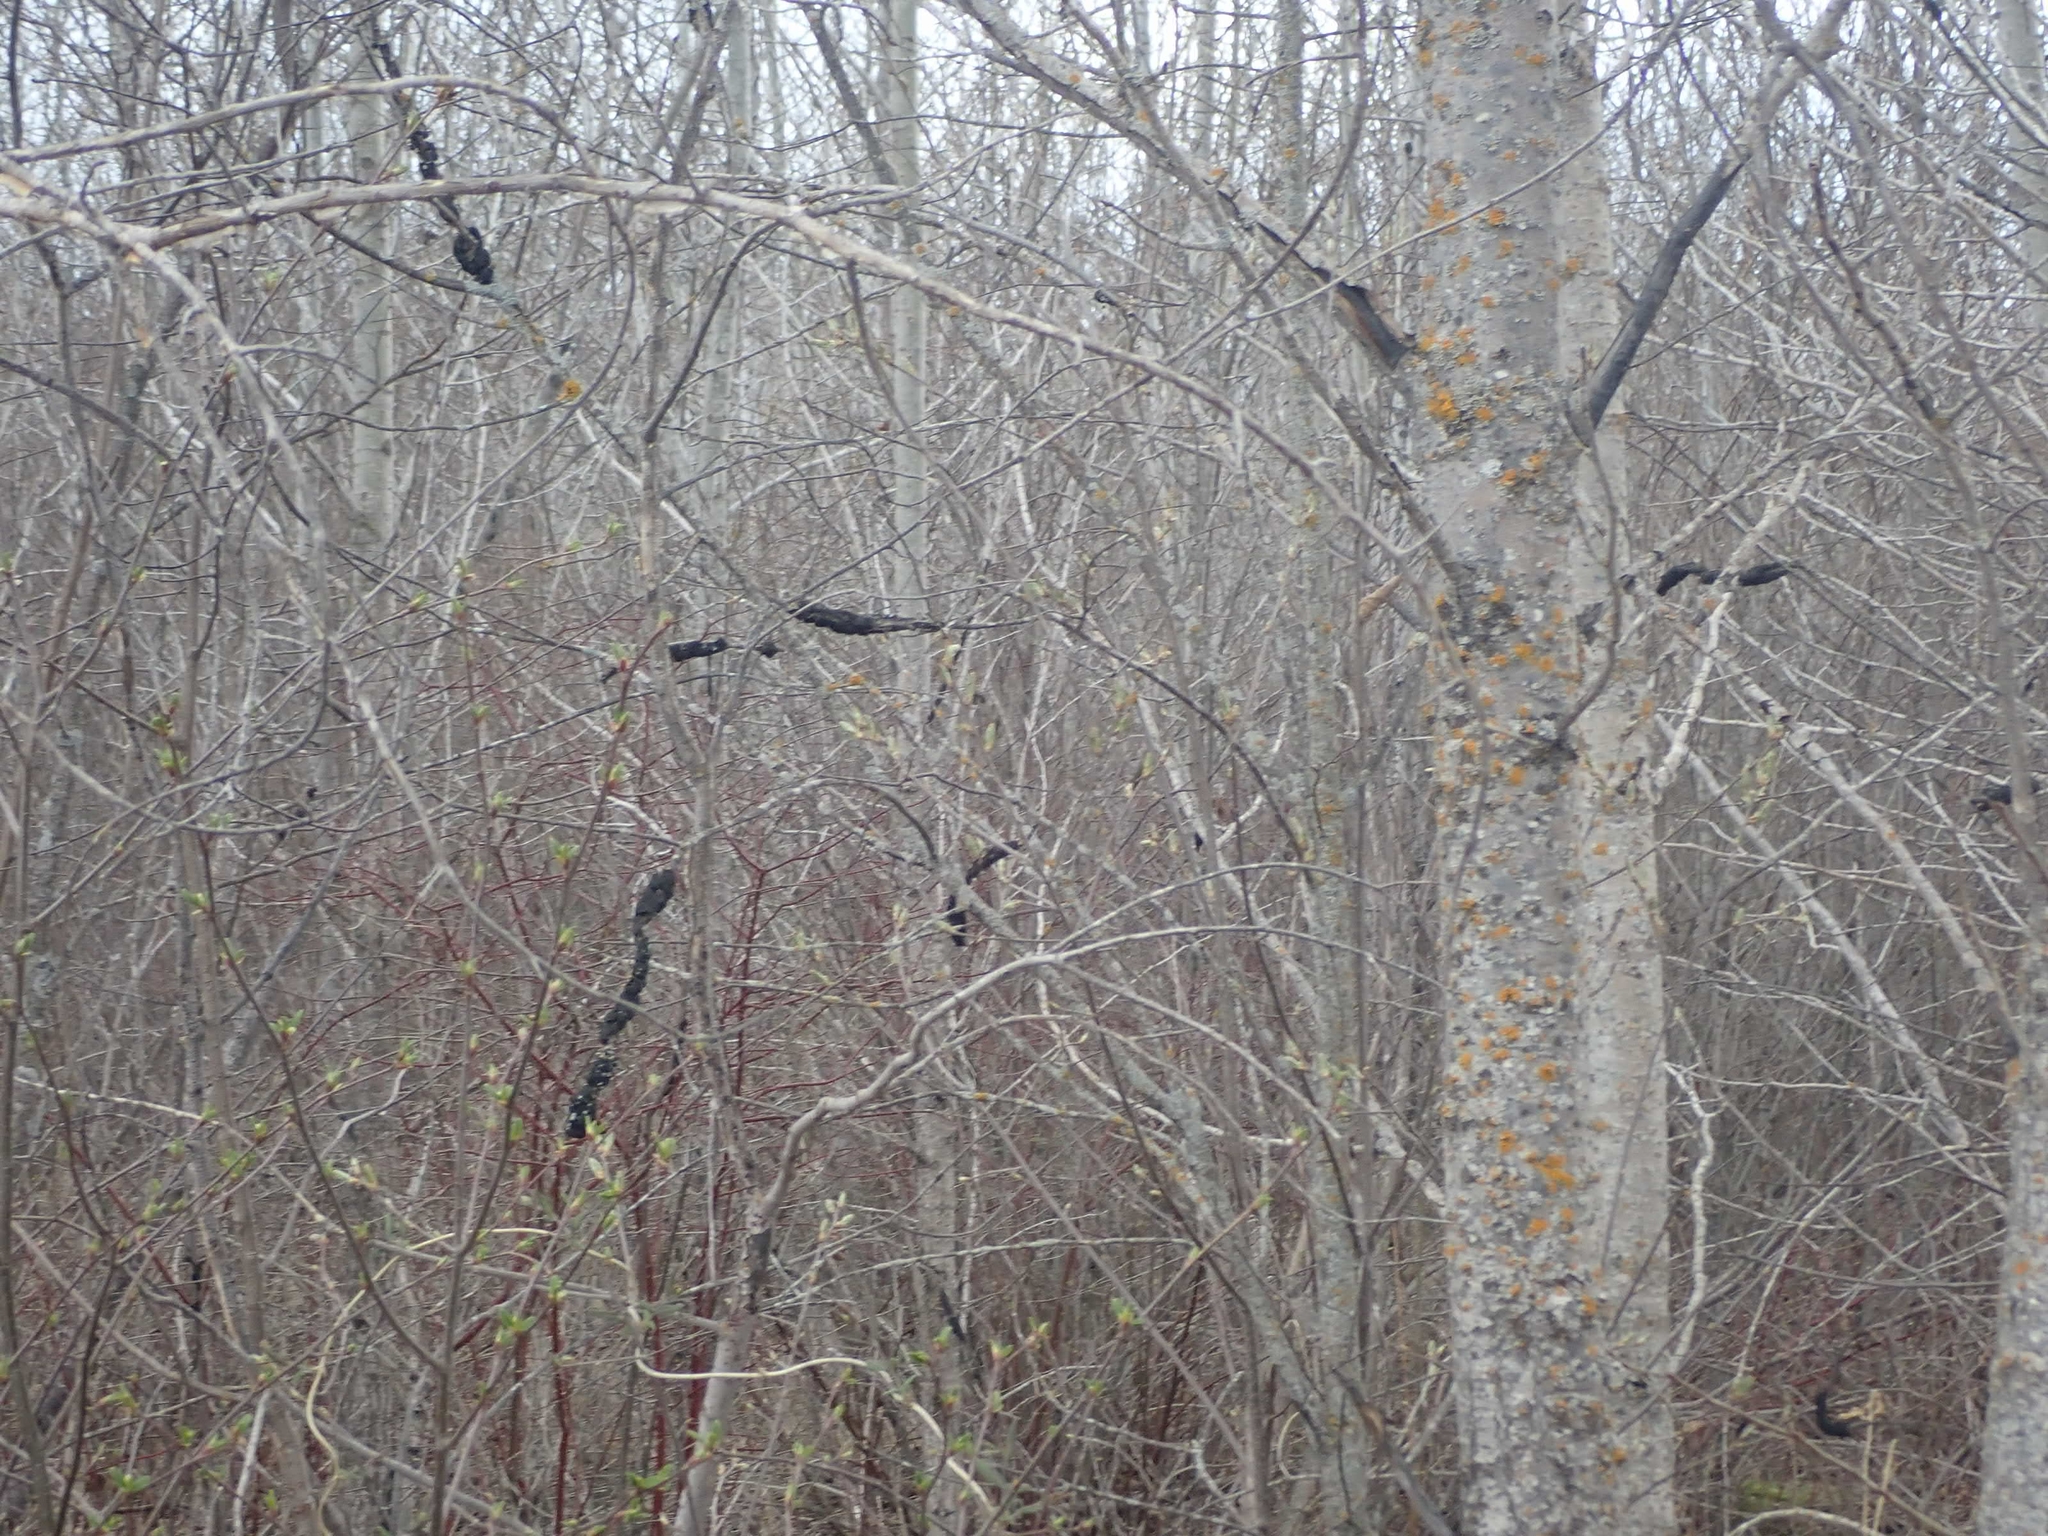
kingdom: Fungi
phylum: Ascomycota
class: Dothideomycetes
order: Venturiales
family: Venturiaceae
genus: Apiosporina
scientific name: Apiosporina morbosa
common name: Black knot
